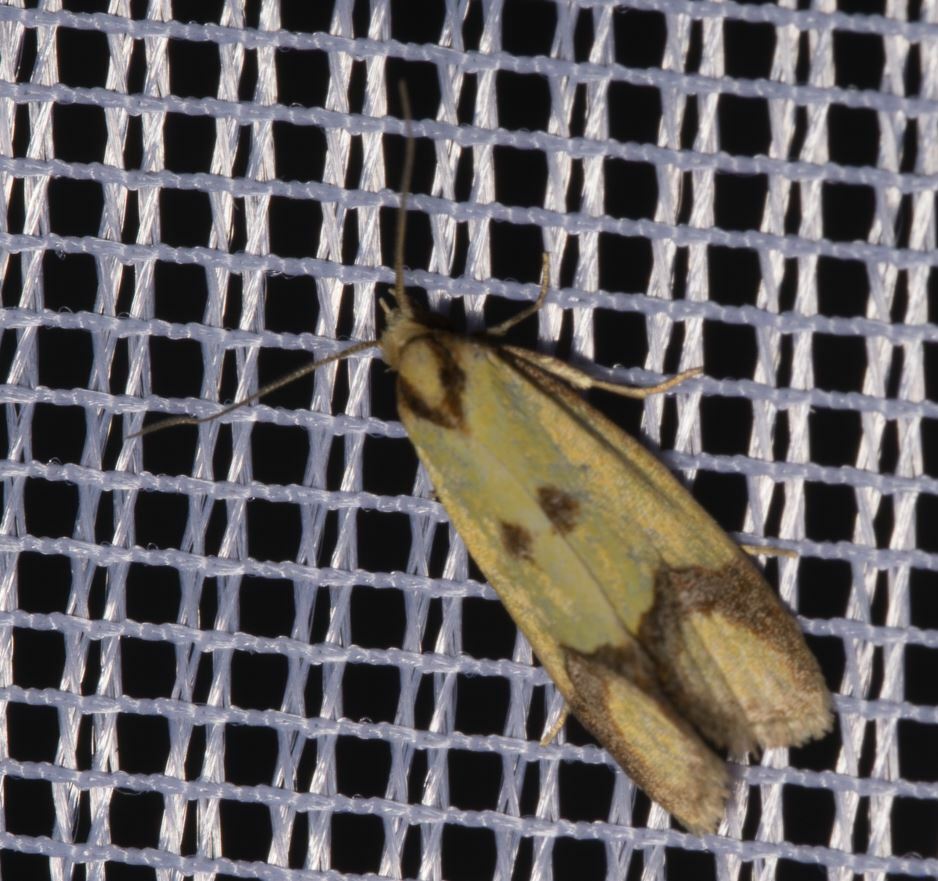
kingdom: Animalia
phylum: Arthropoda
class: Insecta
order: Lepidoptera
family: Tortricidae
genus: Agapeta
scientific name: Agapeta zoegana
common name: Sulfur knapweed root moth
